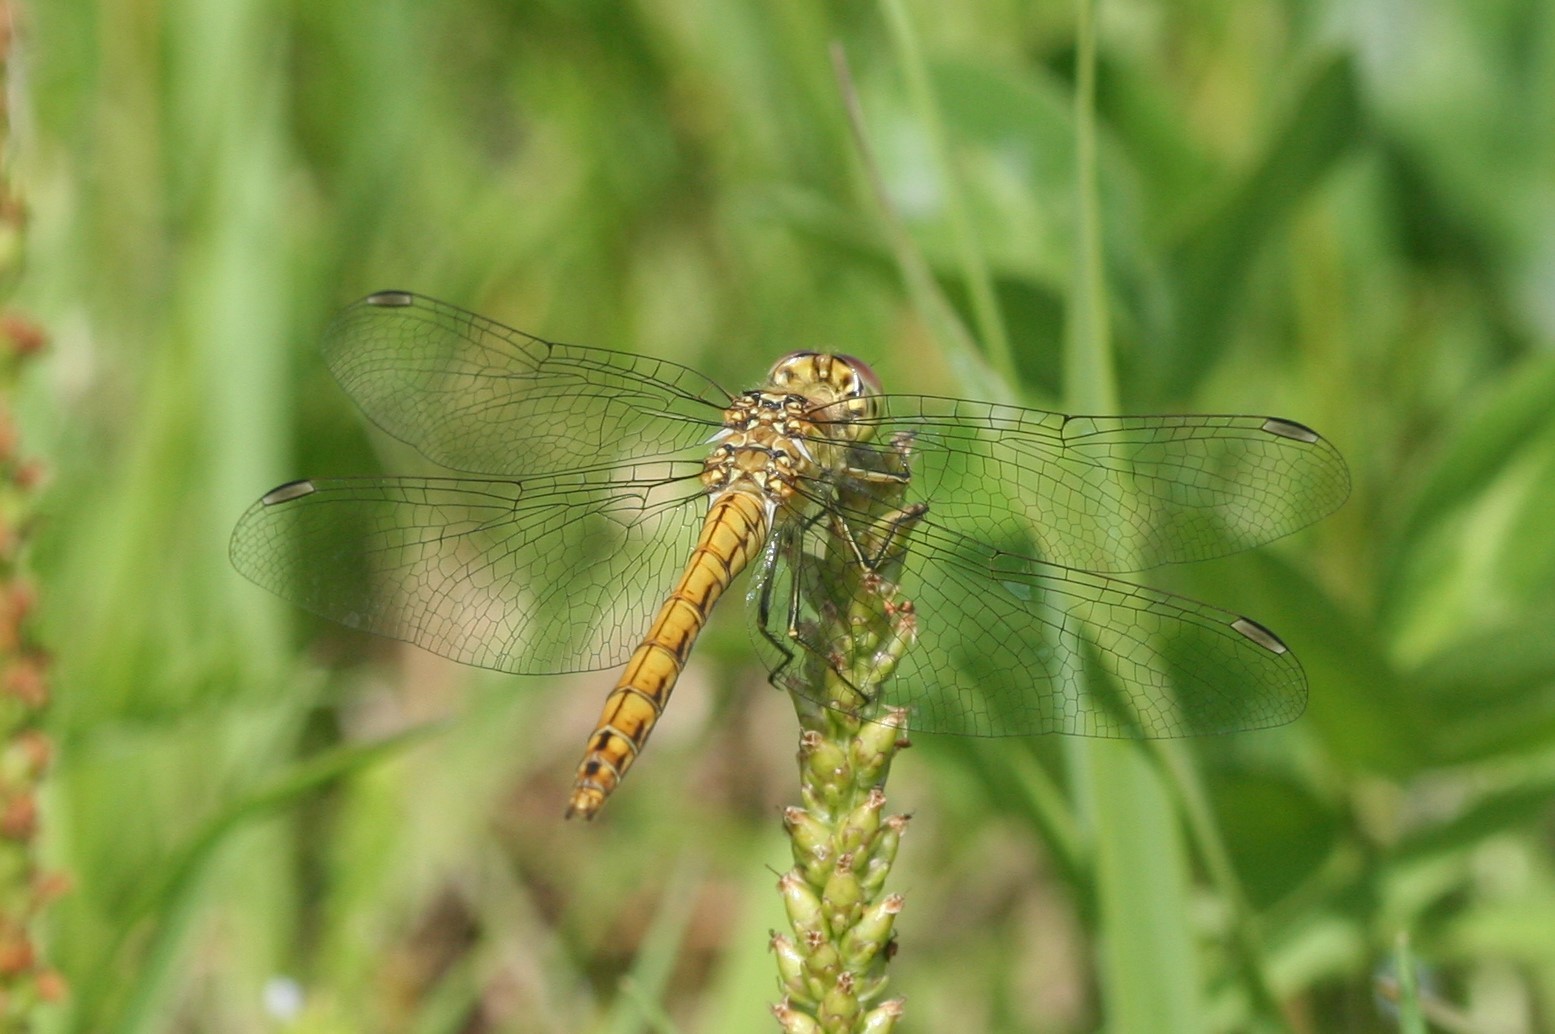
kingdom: Animalia
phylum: Arthropoda
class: Insecta
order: Odonata
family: Libellulidae
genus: Sympetrum
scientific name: Sympetrum vulgatum
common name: Vagrant darter
